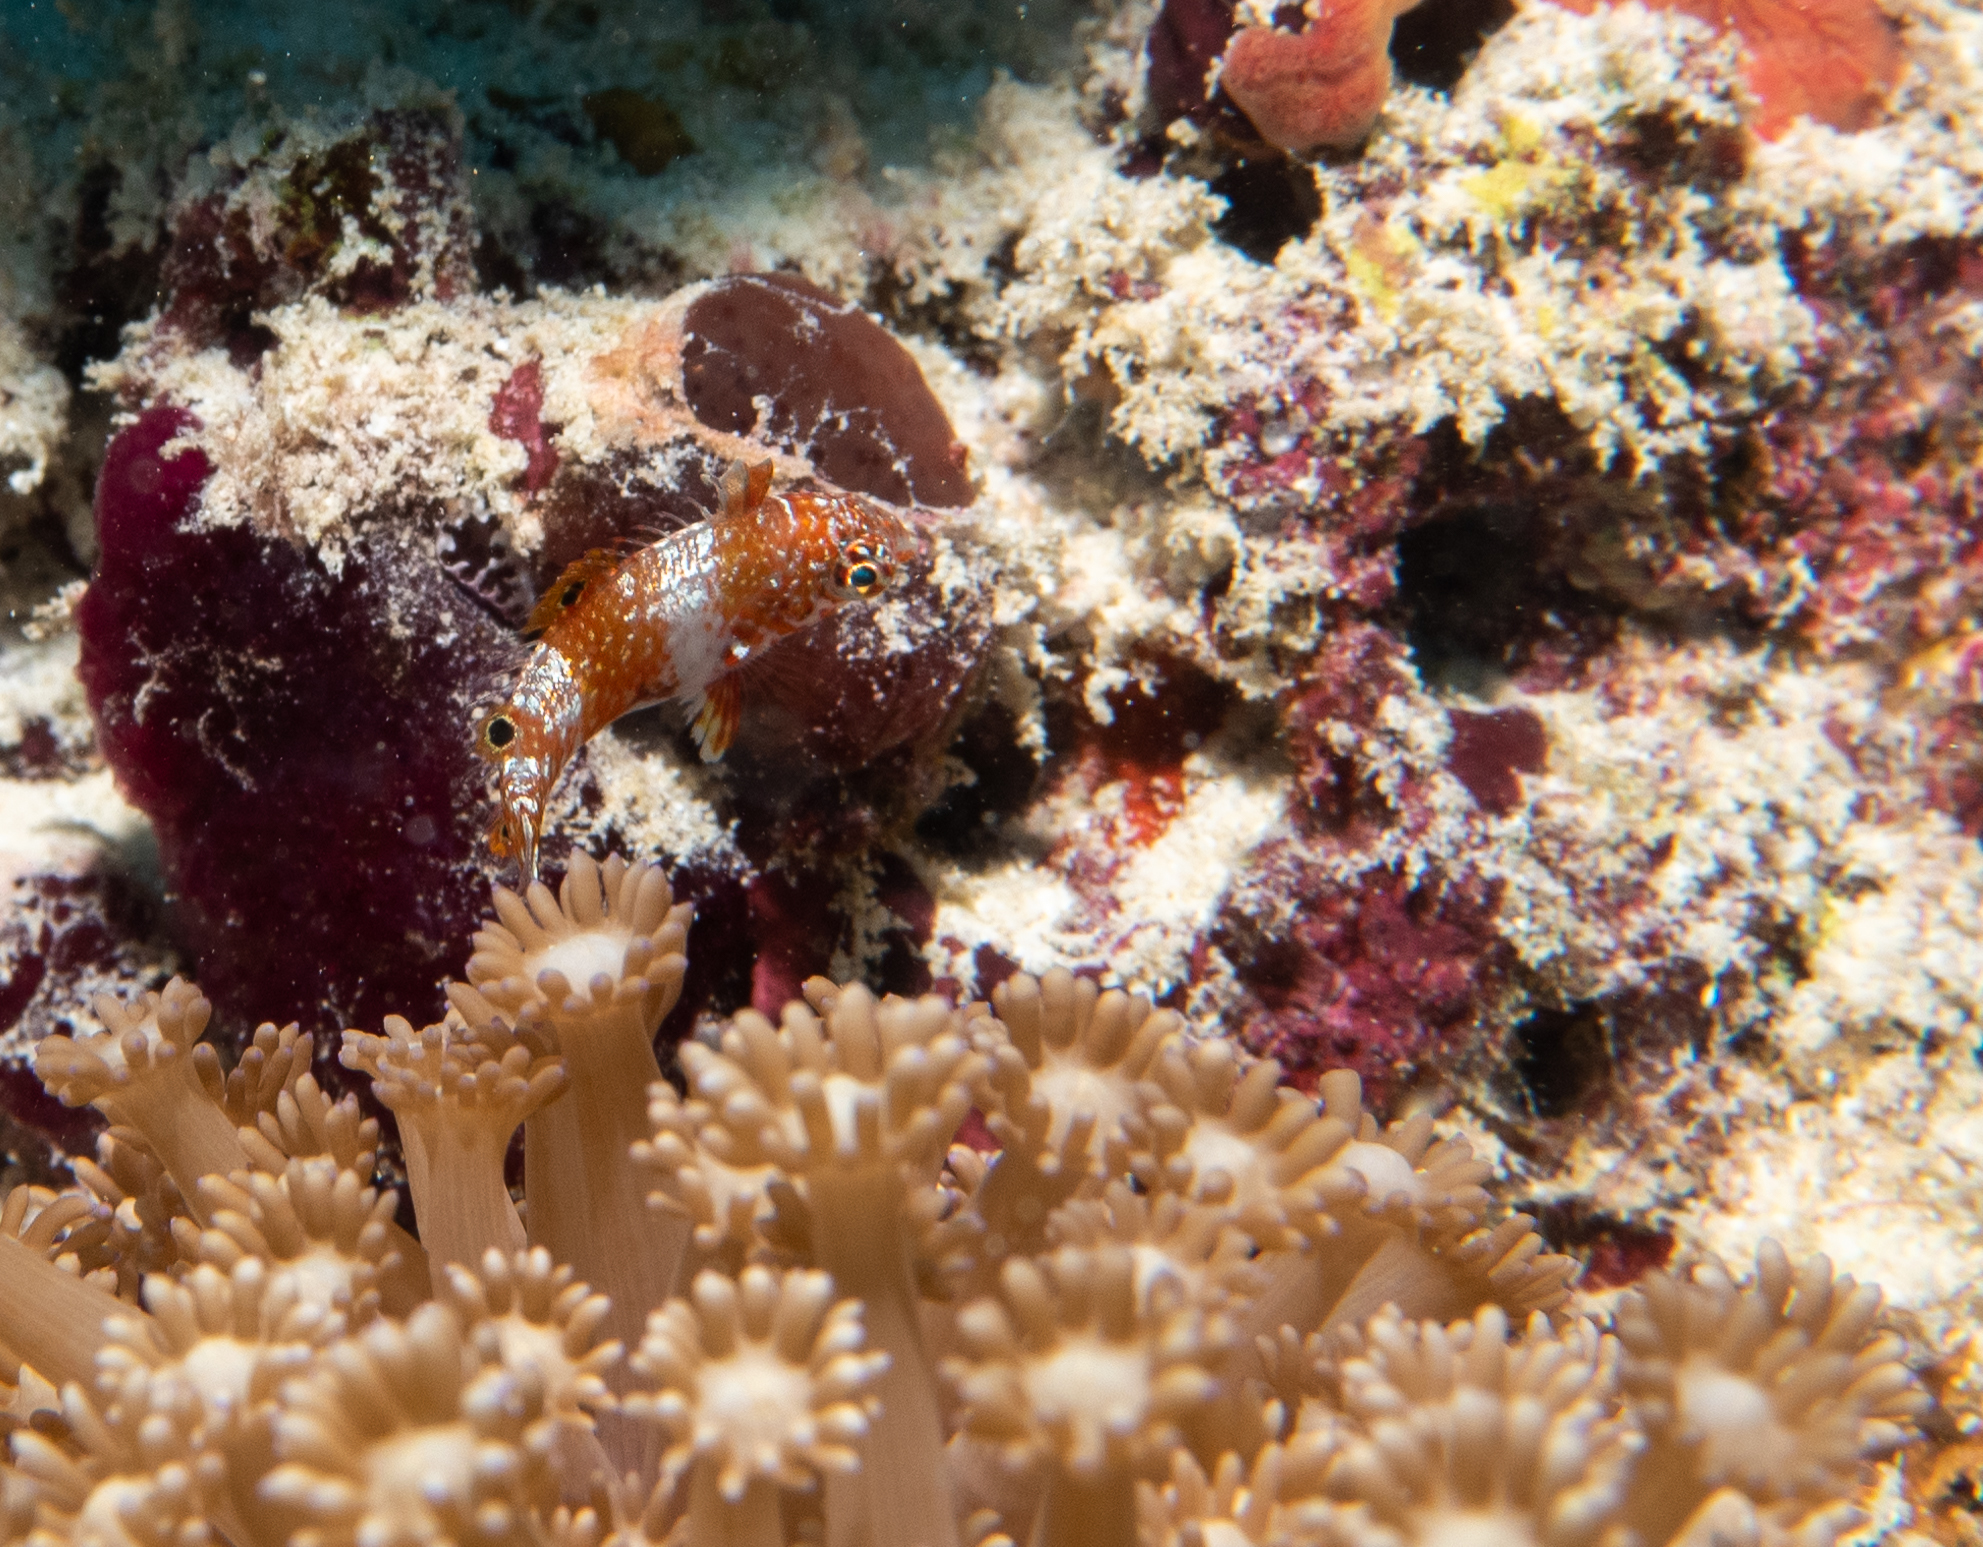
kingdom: Animalia
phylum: Chordata
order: Perciformes
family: Labridae
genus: Macropharyngodon
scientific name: Macropharyngodon bipartitus
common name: Divided wrasse
